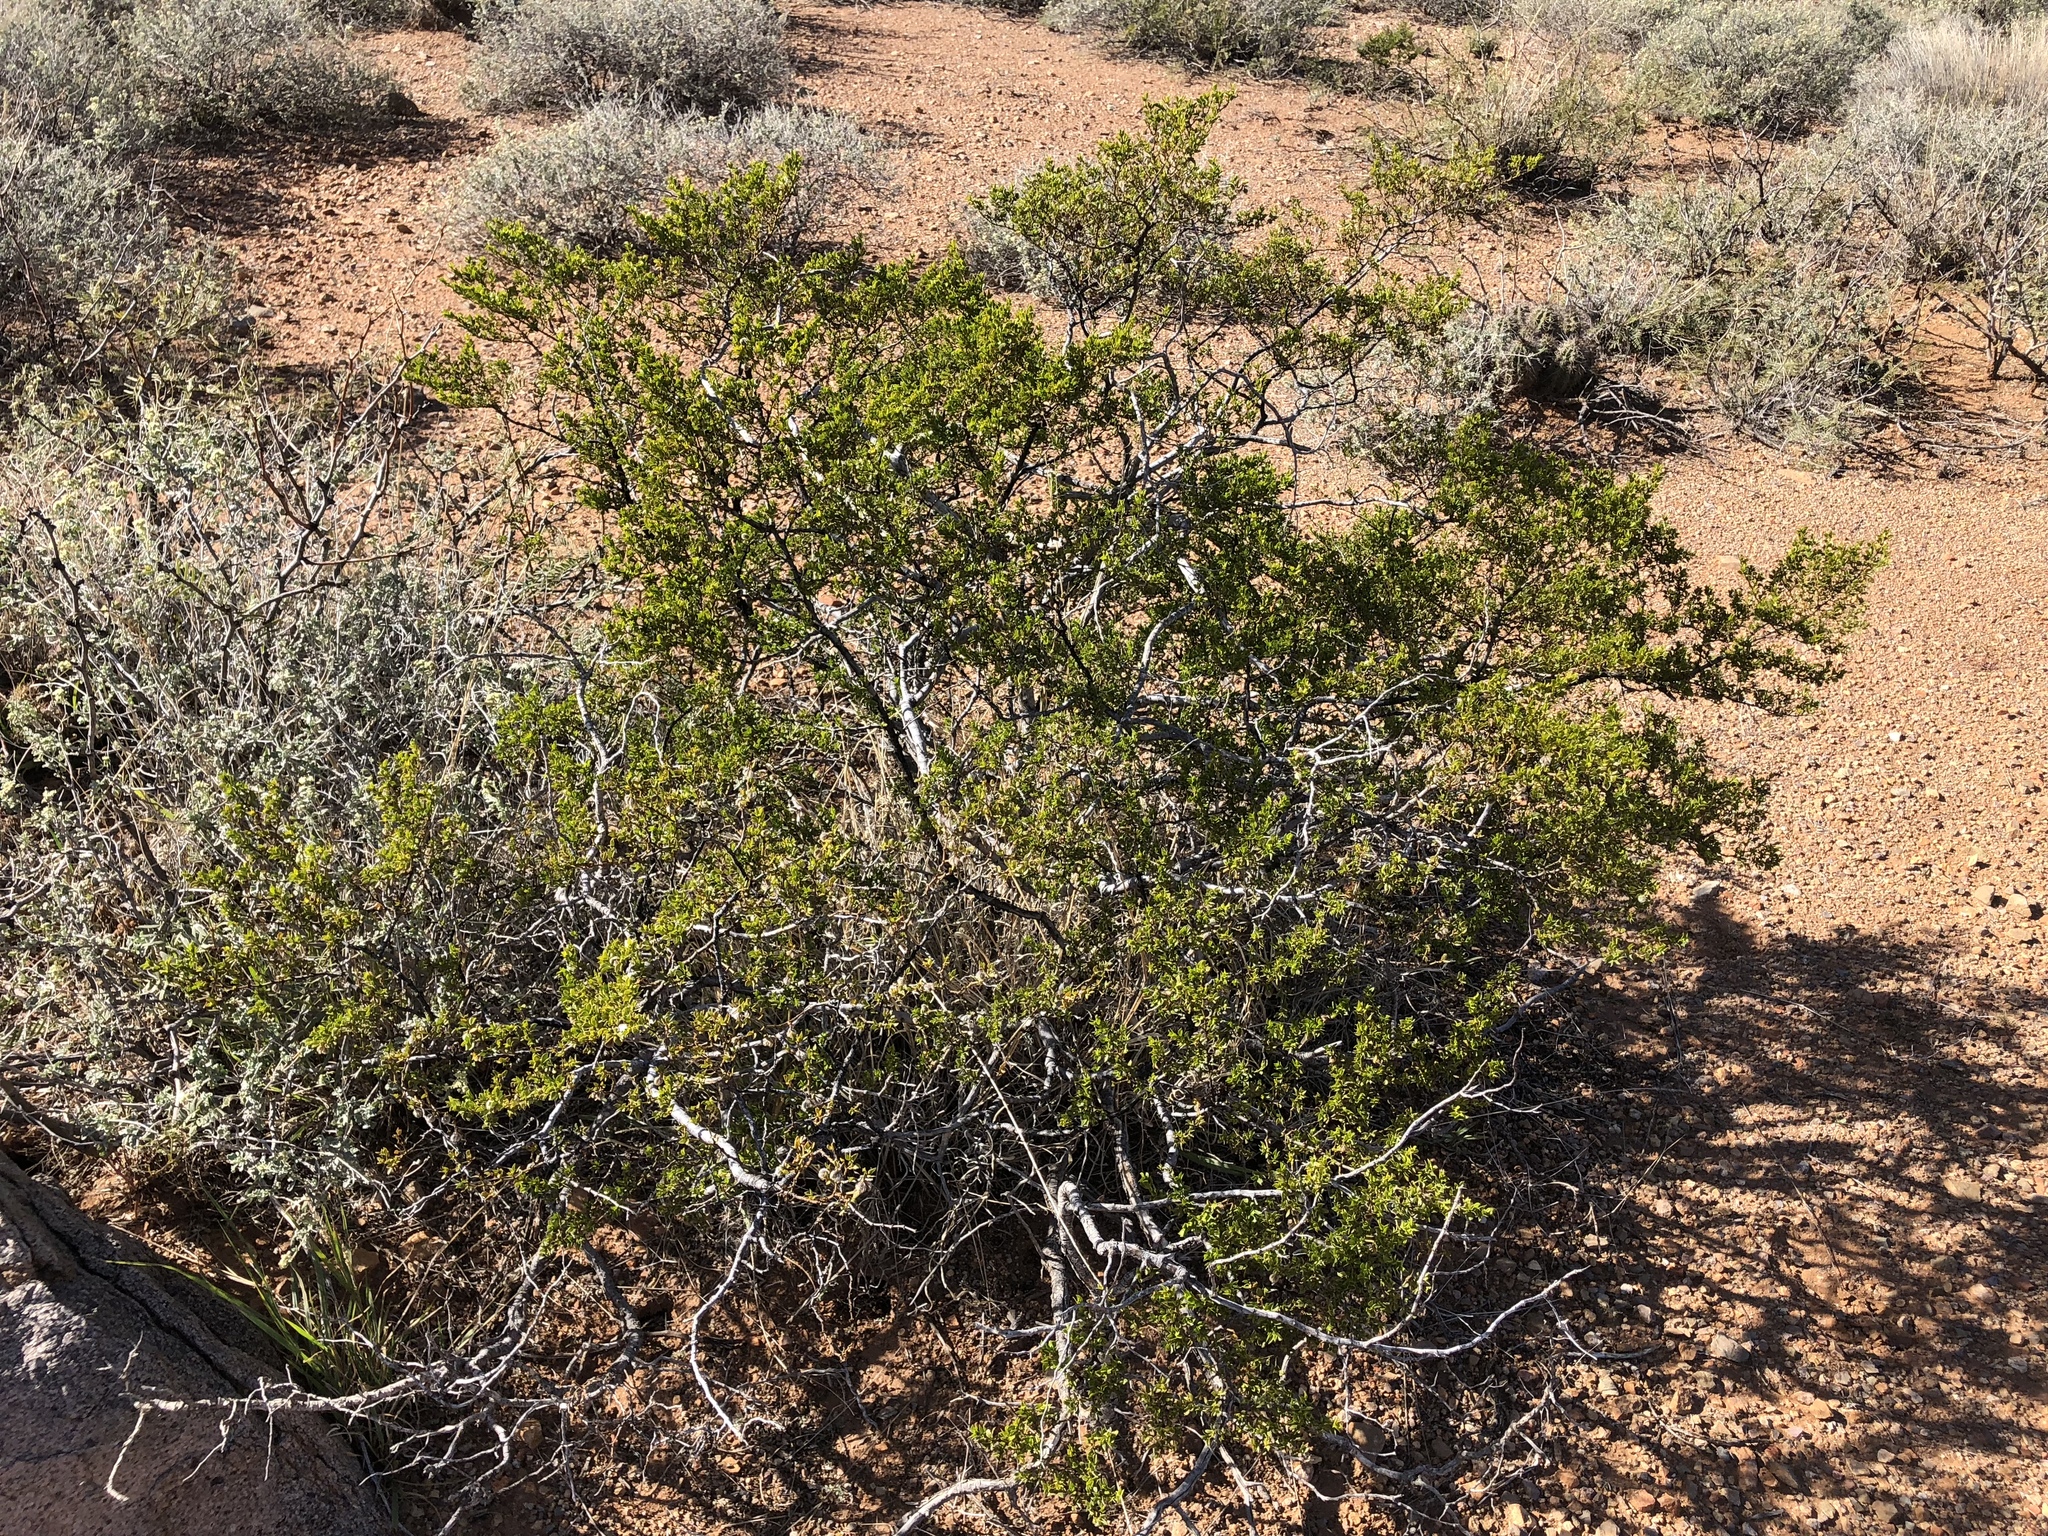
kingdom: Plantae
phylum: Tracheophyta
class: Magnoliopsida
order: Zygophyllales
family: Zygophyllaceae
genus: Larrea
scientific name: Larrea tridentata
